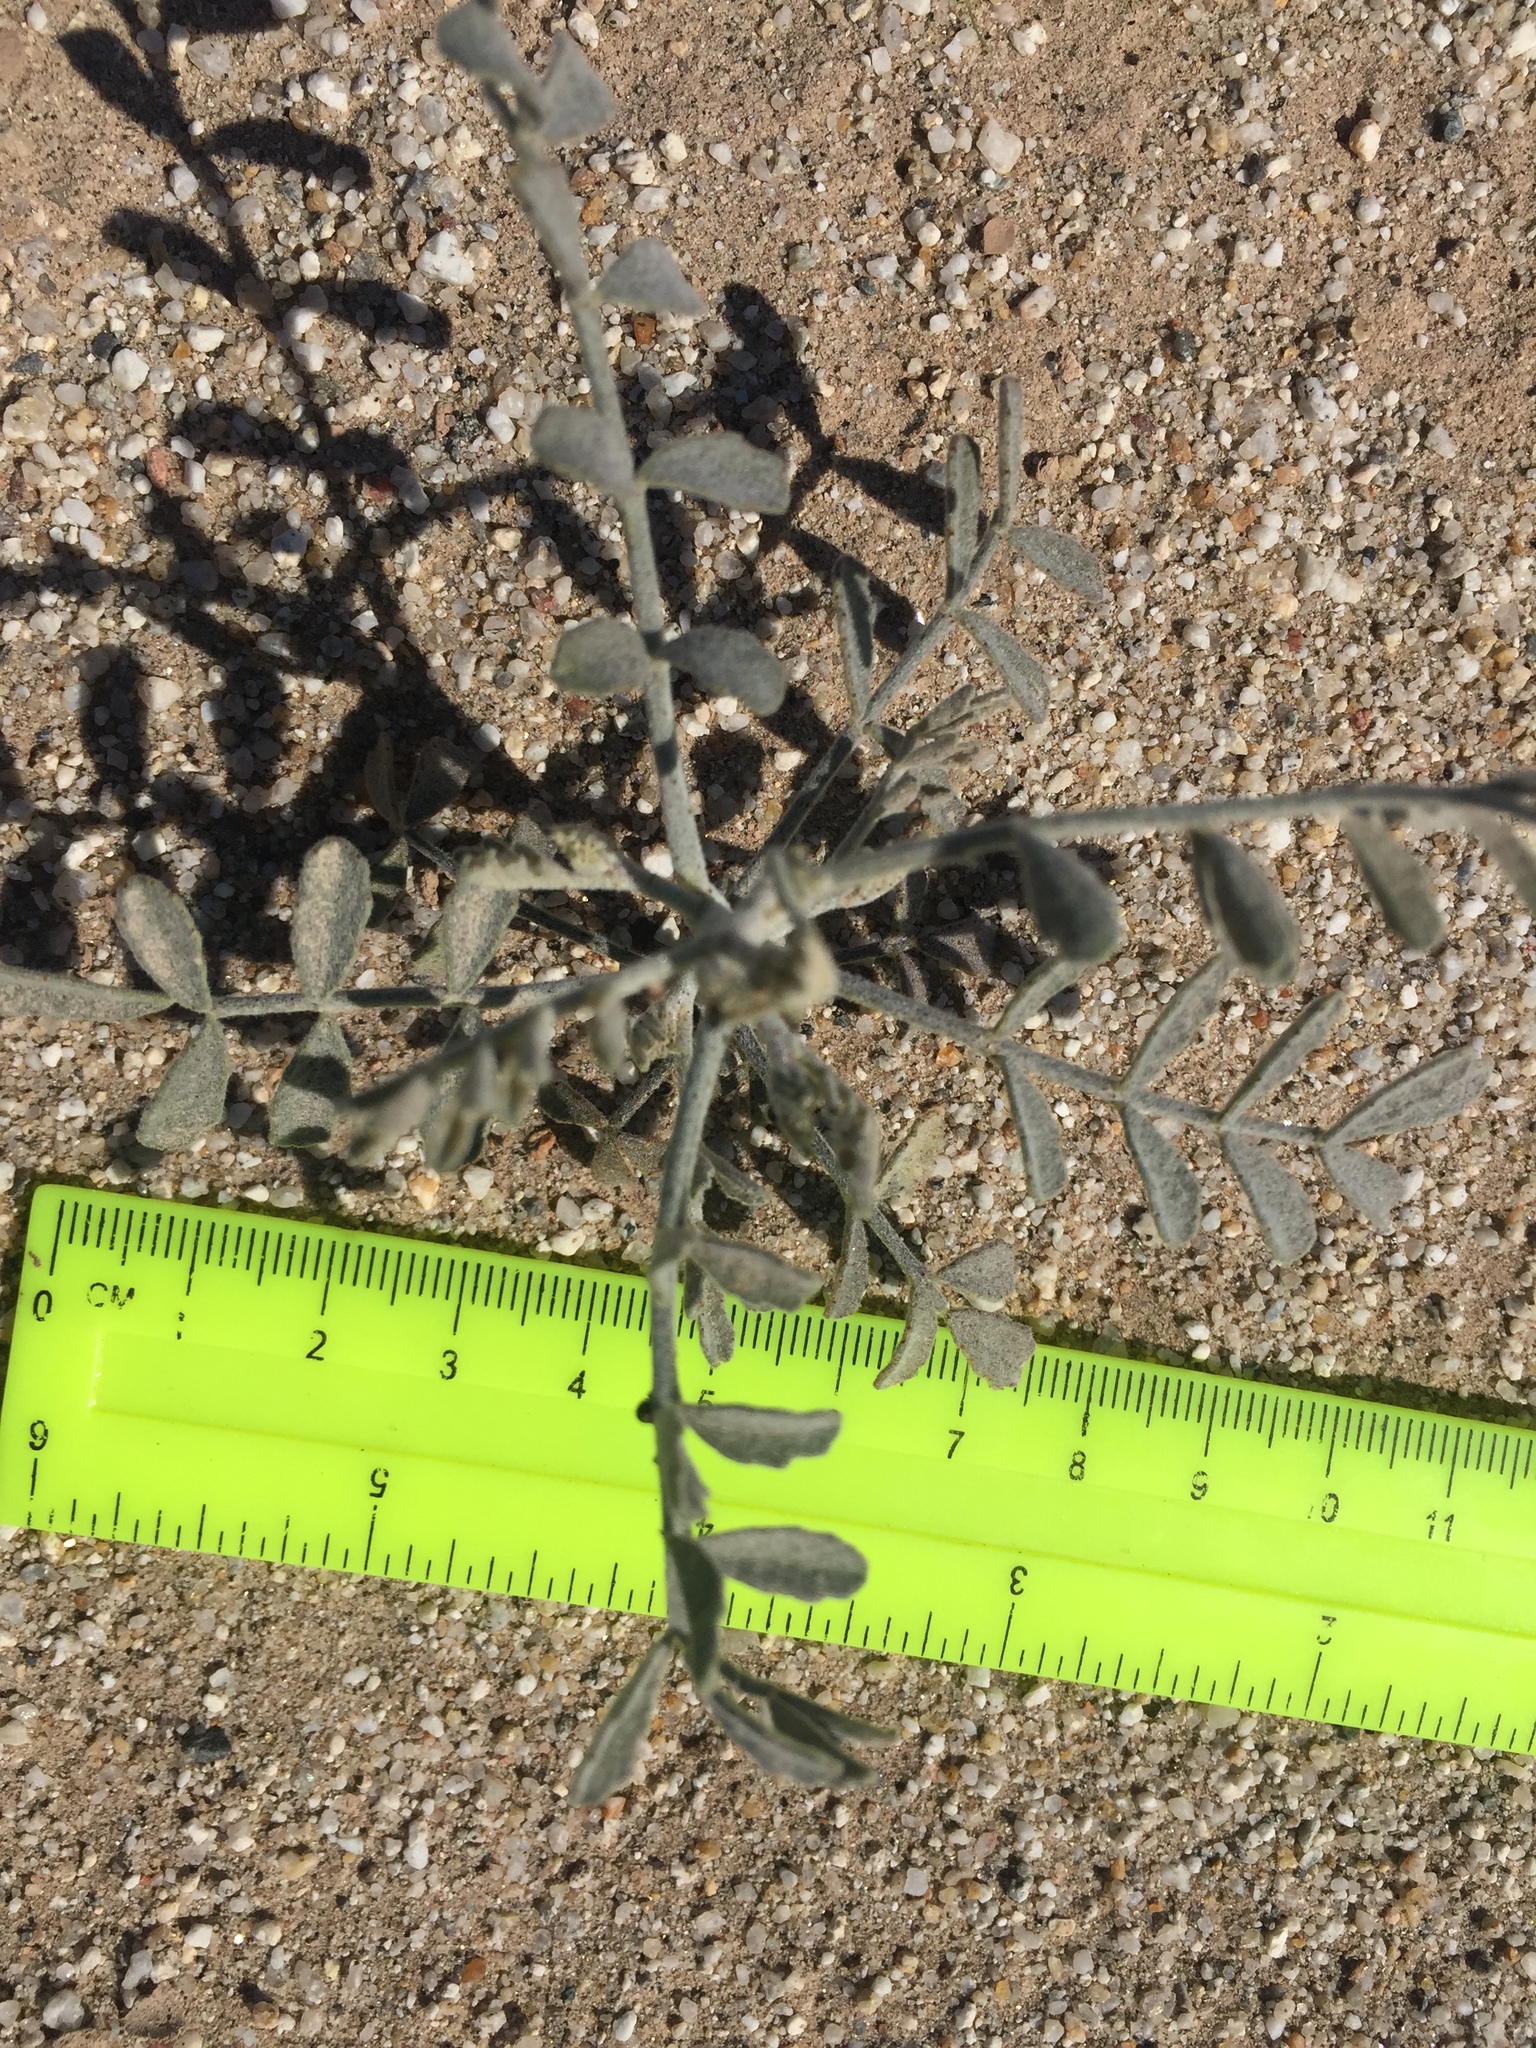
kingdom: Plantae
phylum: Tracheophyta
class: Magnoliopsida
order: Fabales
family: Fabaceae
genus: Psorothamnus
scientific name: Psorothamnus emoryi
